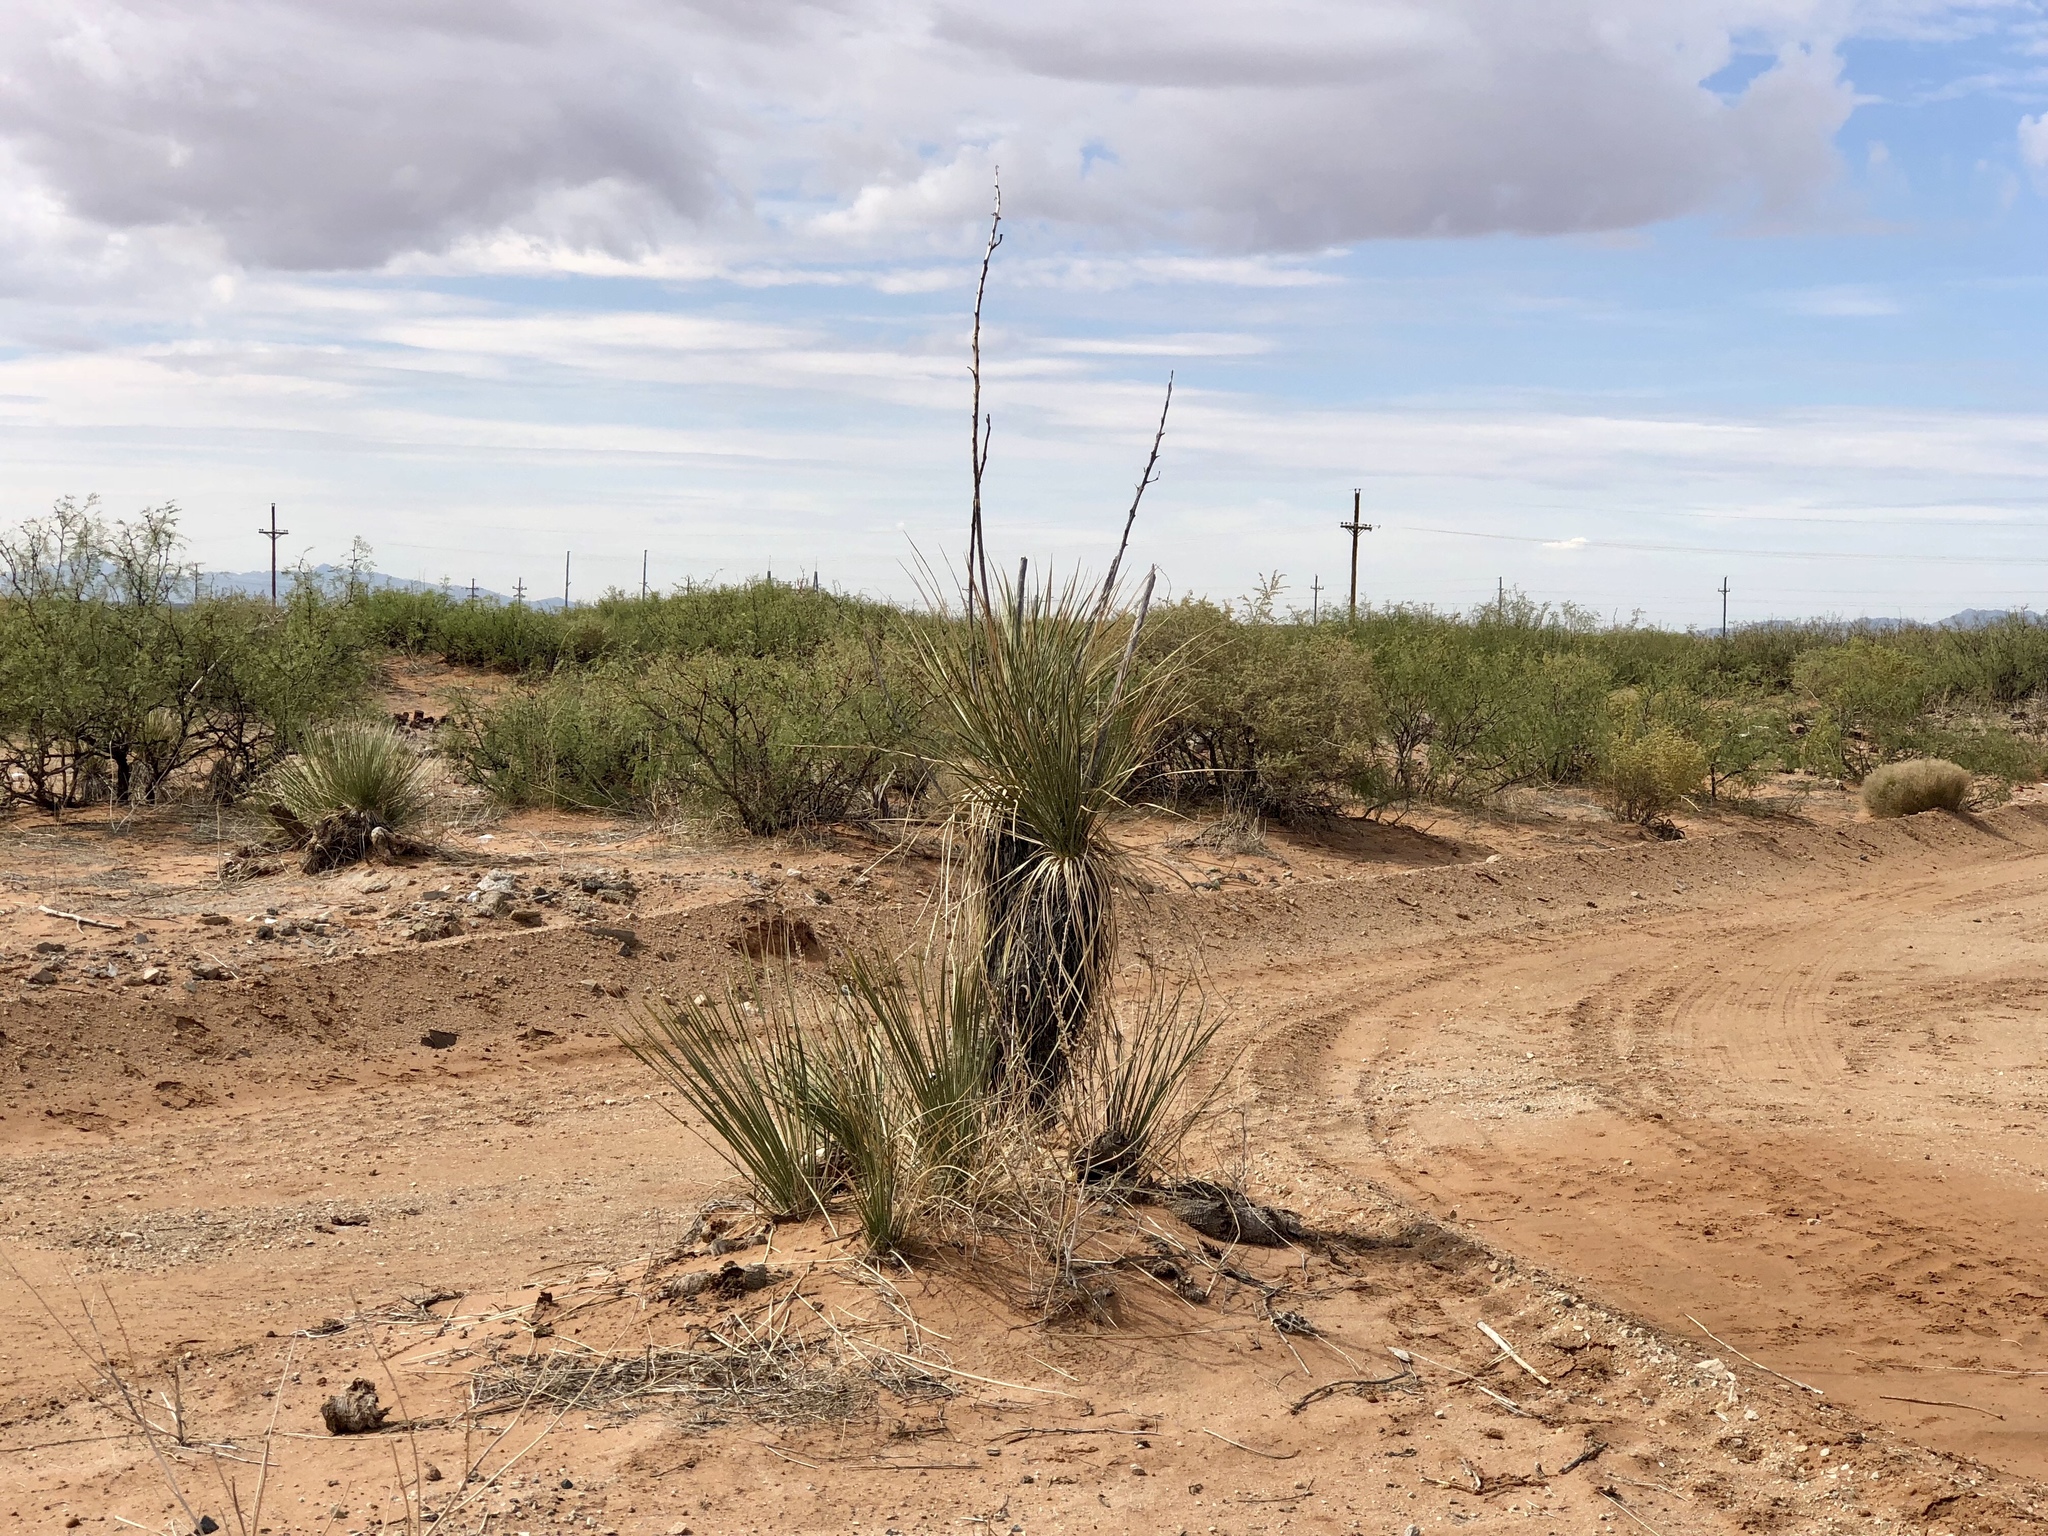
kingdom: Plantae
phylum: Tracheophyta
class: Liliopsida
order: Asparagales
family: Asparagaceae
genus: Yucca
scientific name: Yucca elata
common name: Palmella
